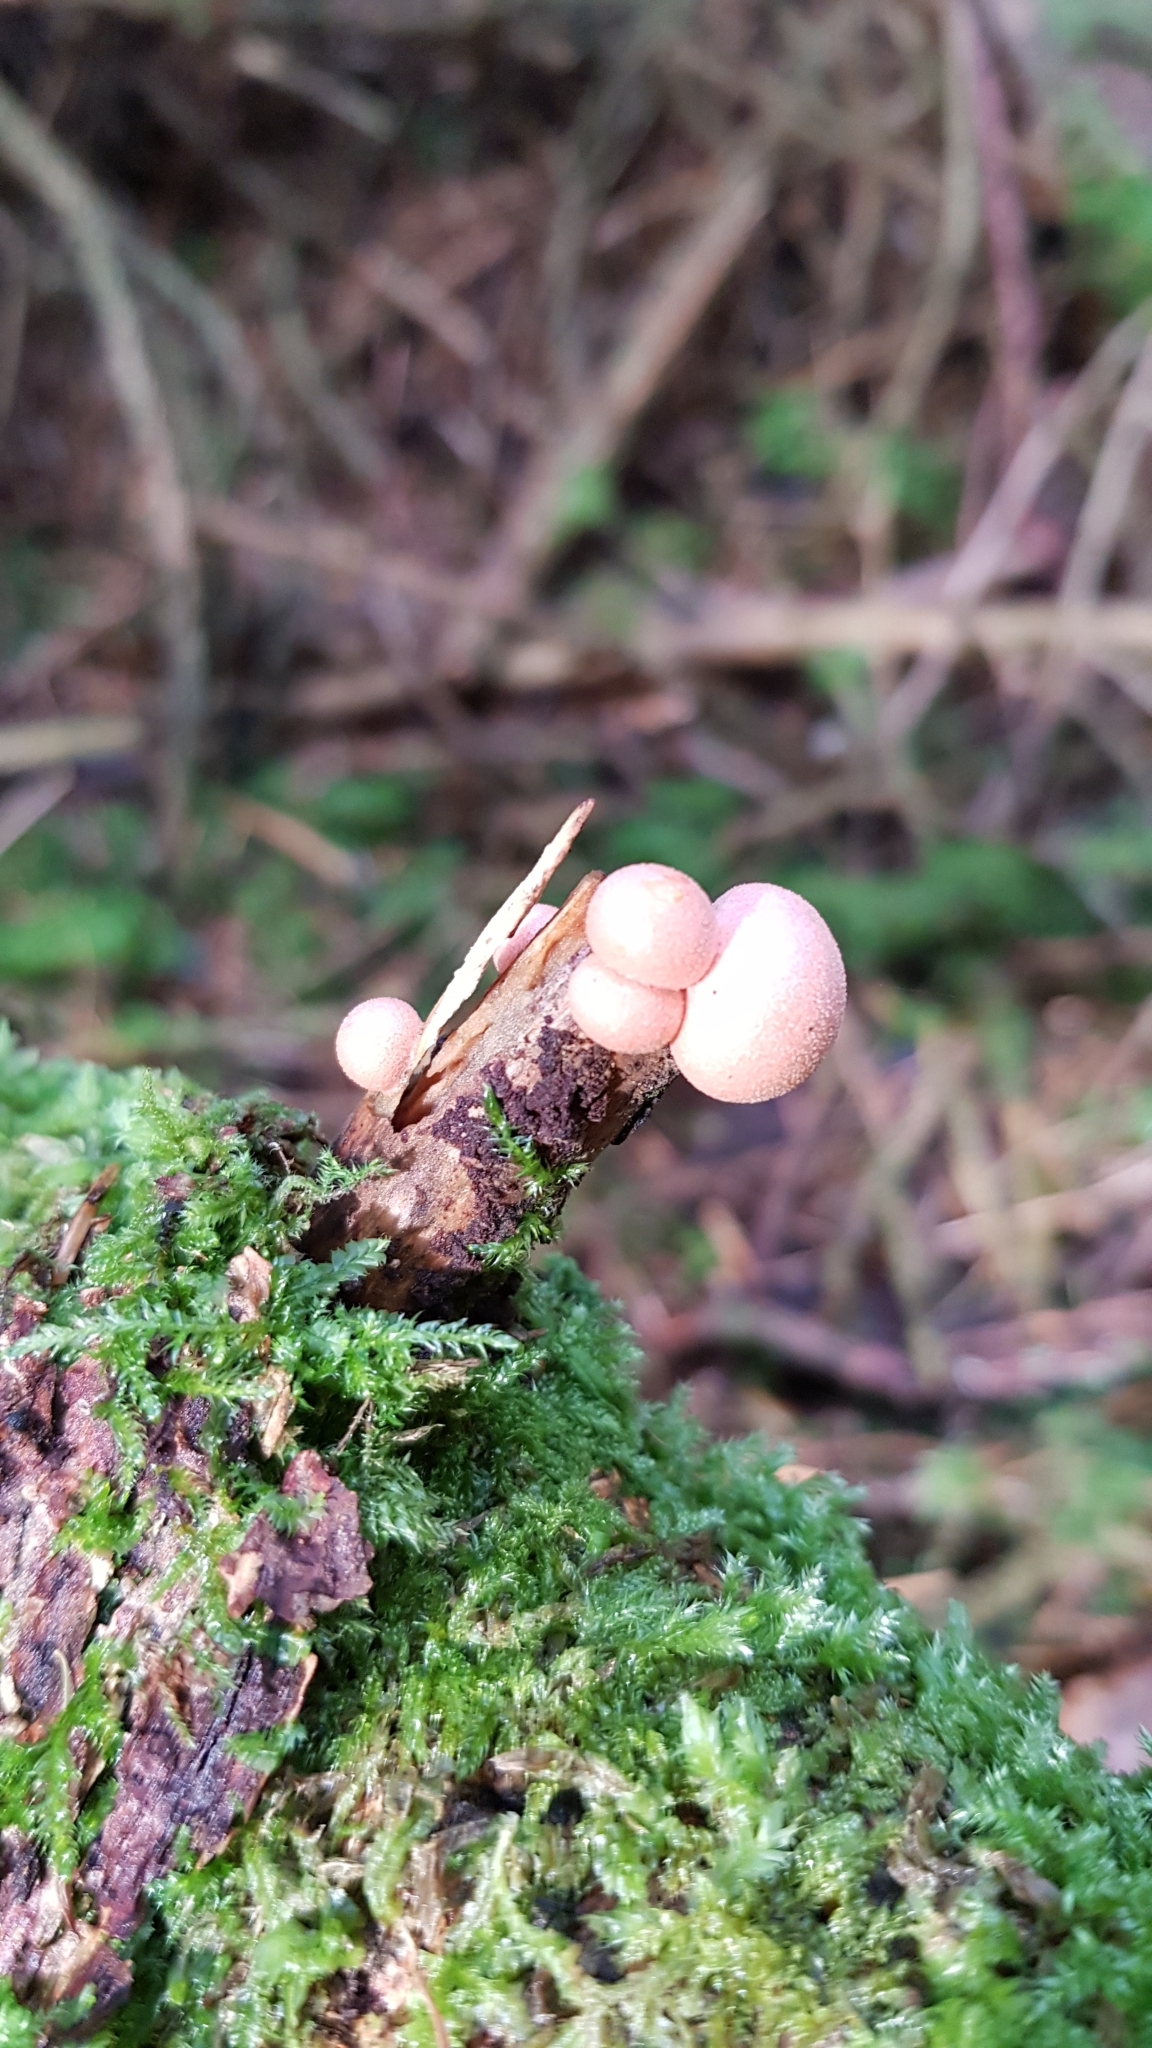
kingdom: Protozoa
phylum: Mycetozoa
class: Myxomycetes
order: Cribrariales
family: Tubiferaceae
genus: Lycogala
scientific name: Lycogala epidendrum
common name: Wolf's milk
